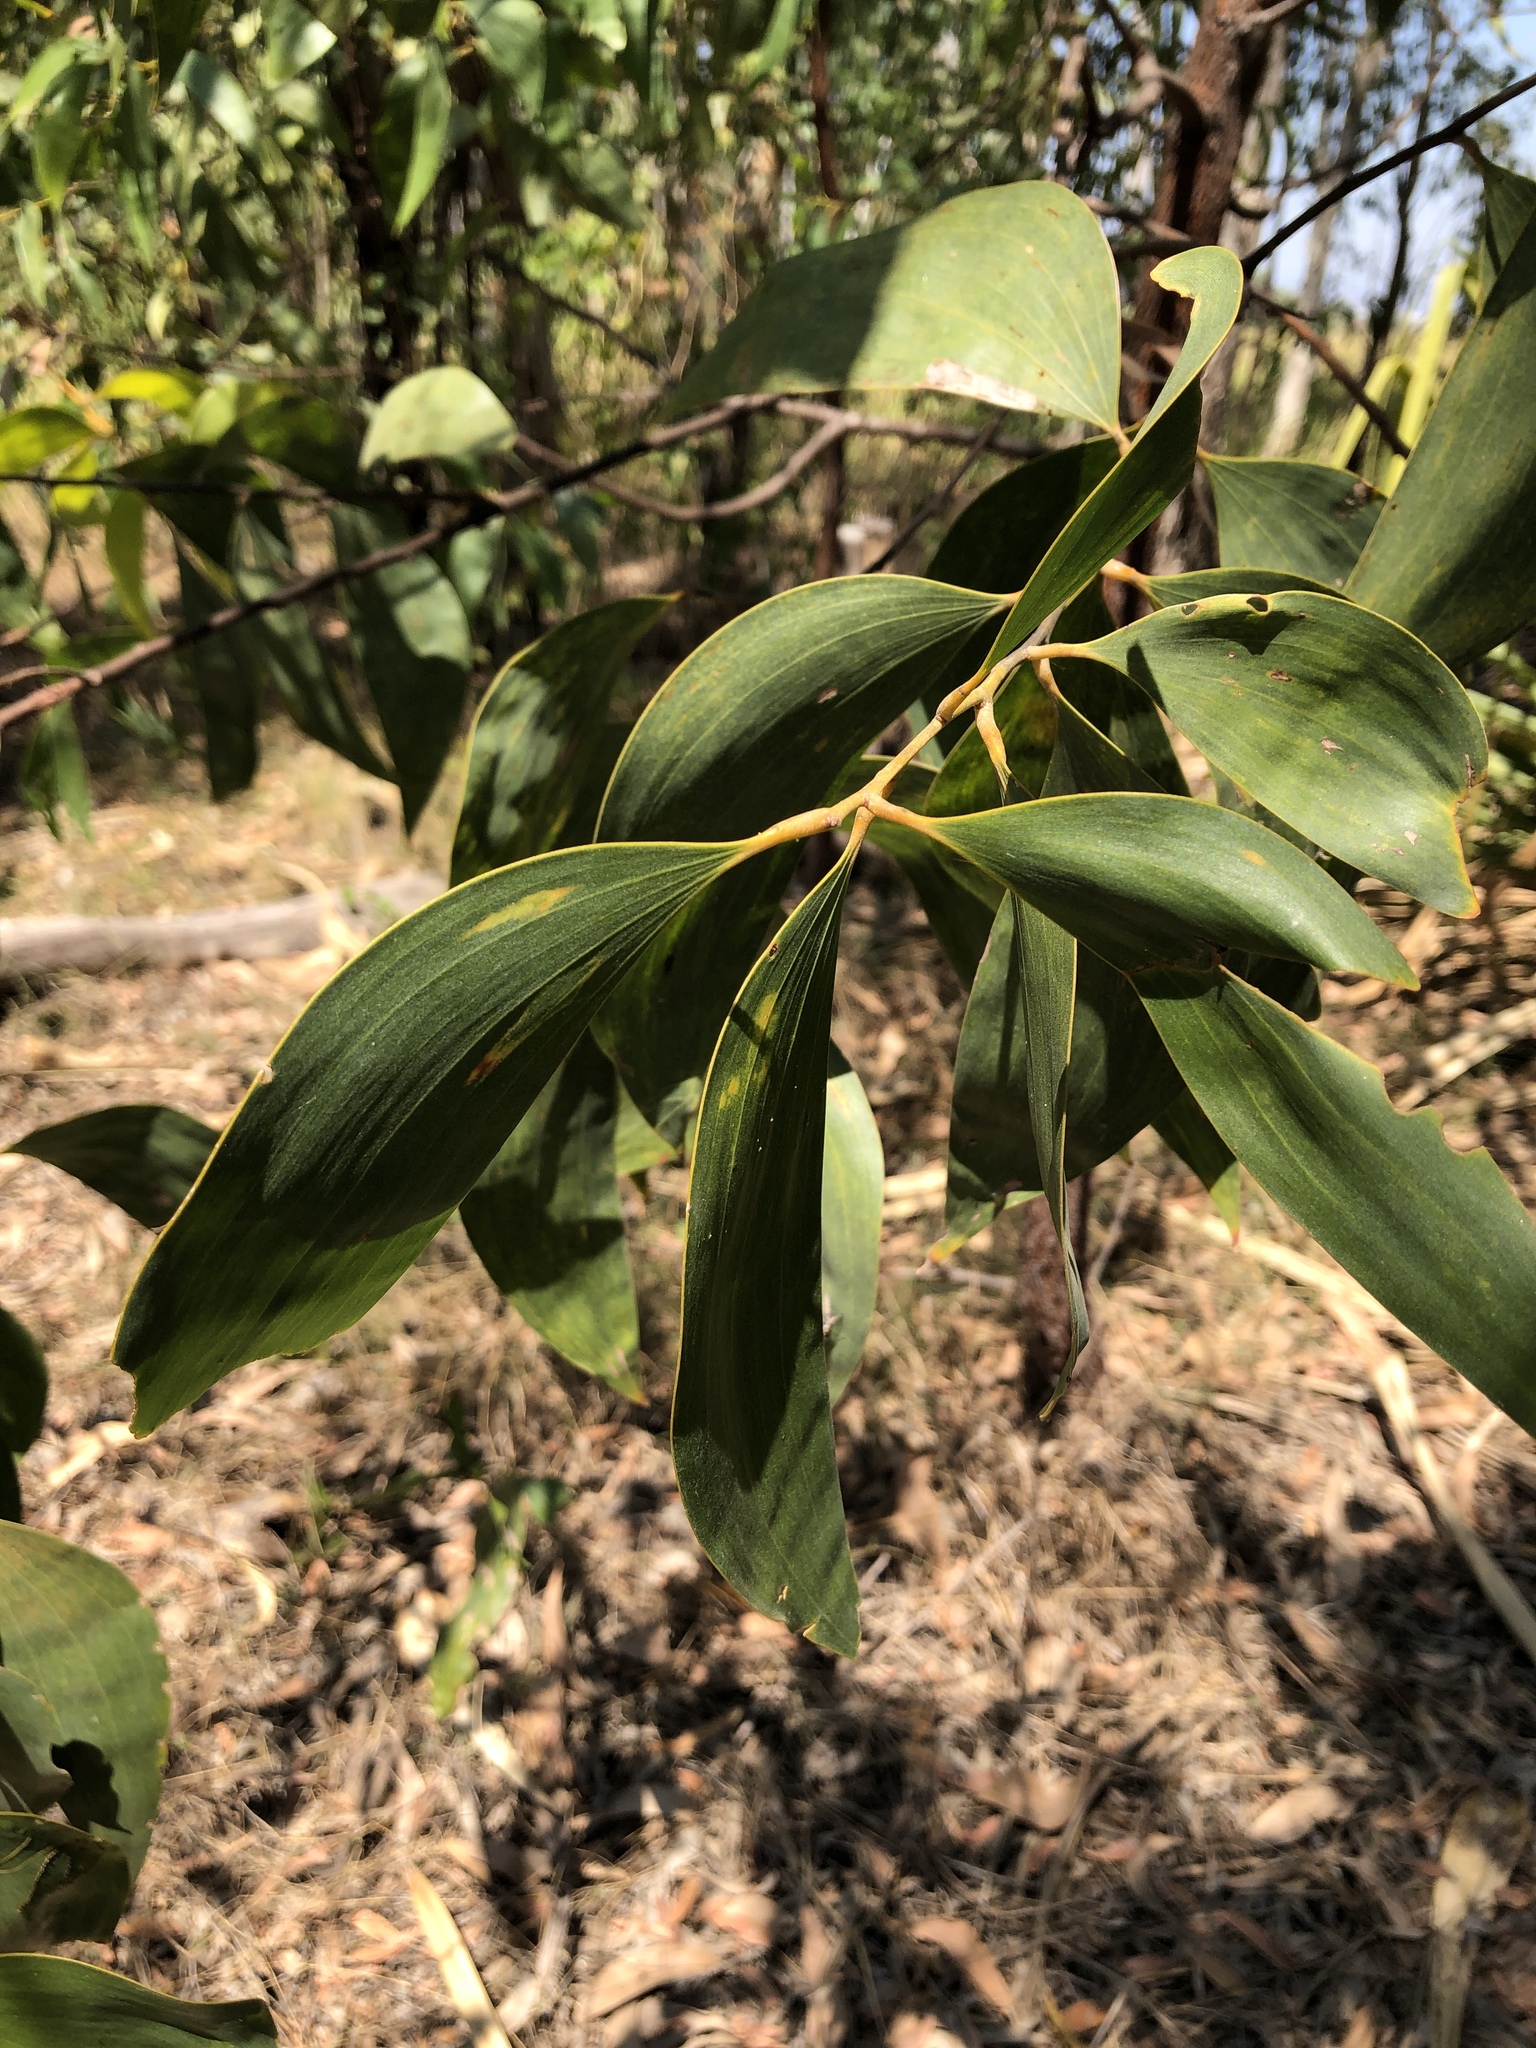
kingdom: Plantae
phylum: Tracheophyta
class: Magnoliopsida
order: Fabales
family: Fabaceae
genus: Acacia
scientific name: Acacia crassicarpa
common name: Northern wattle
